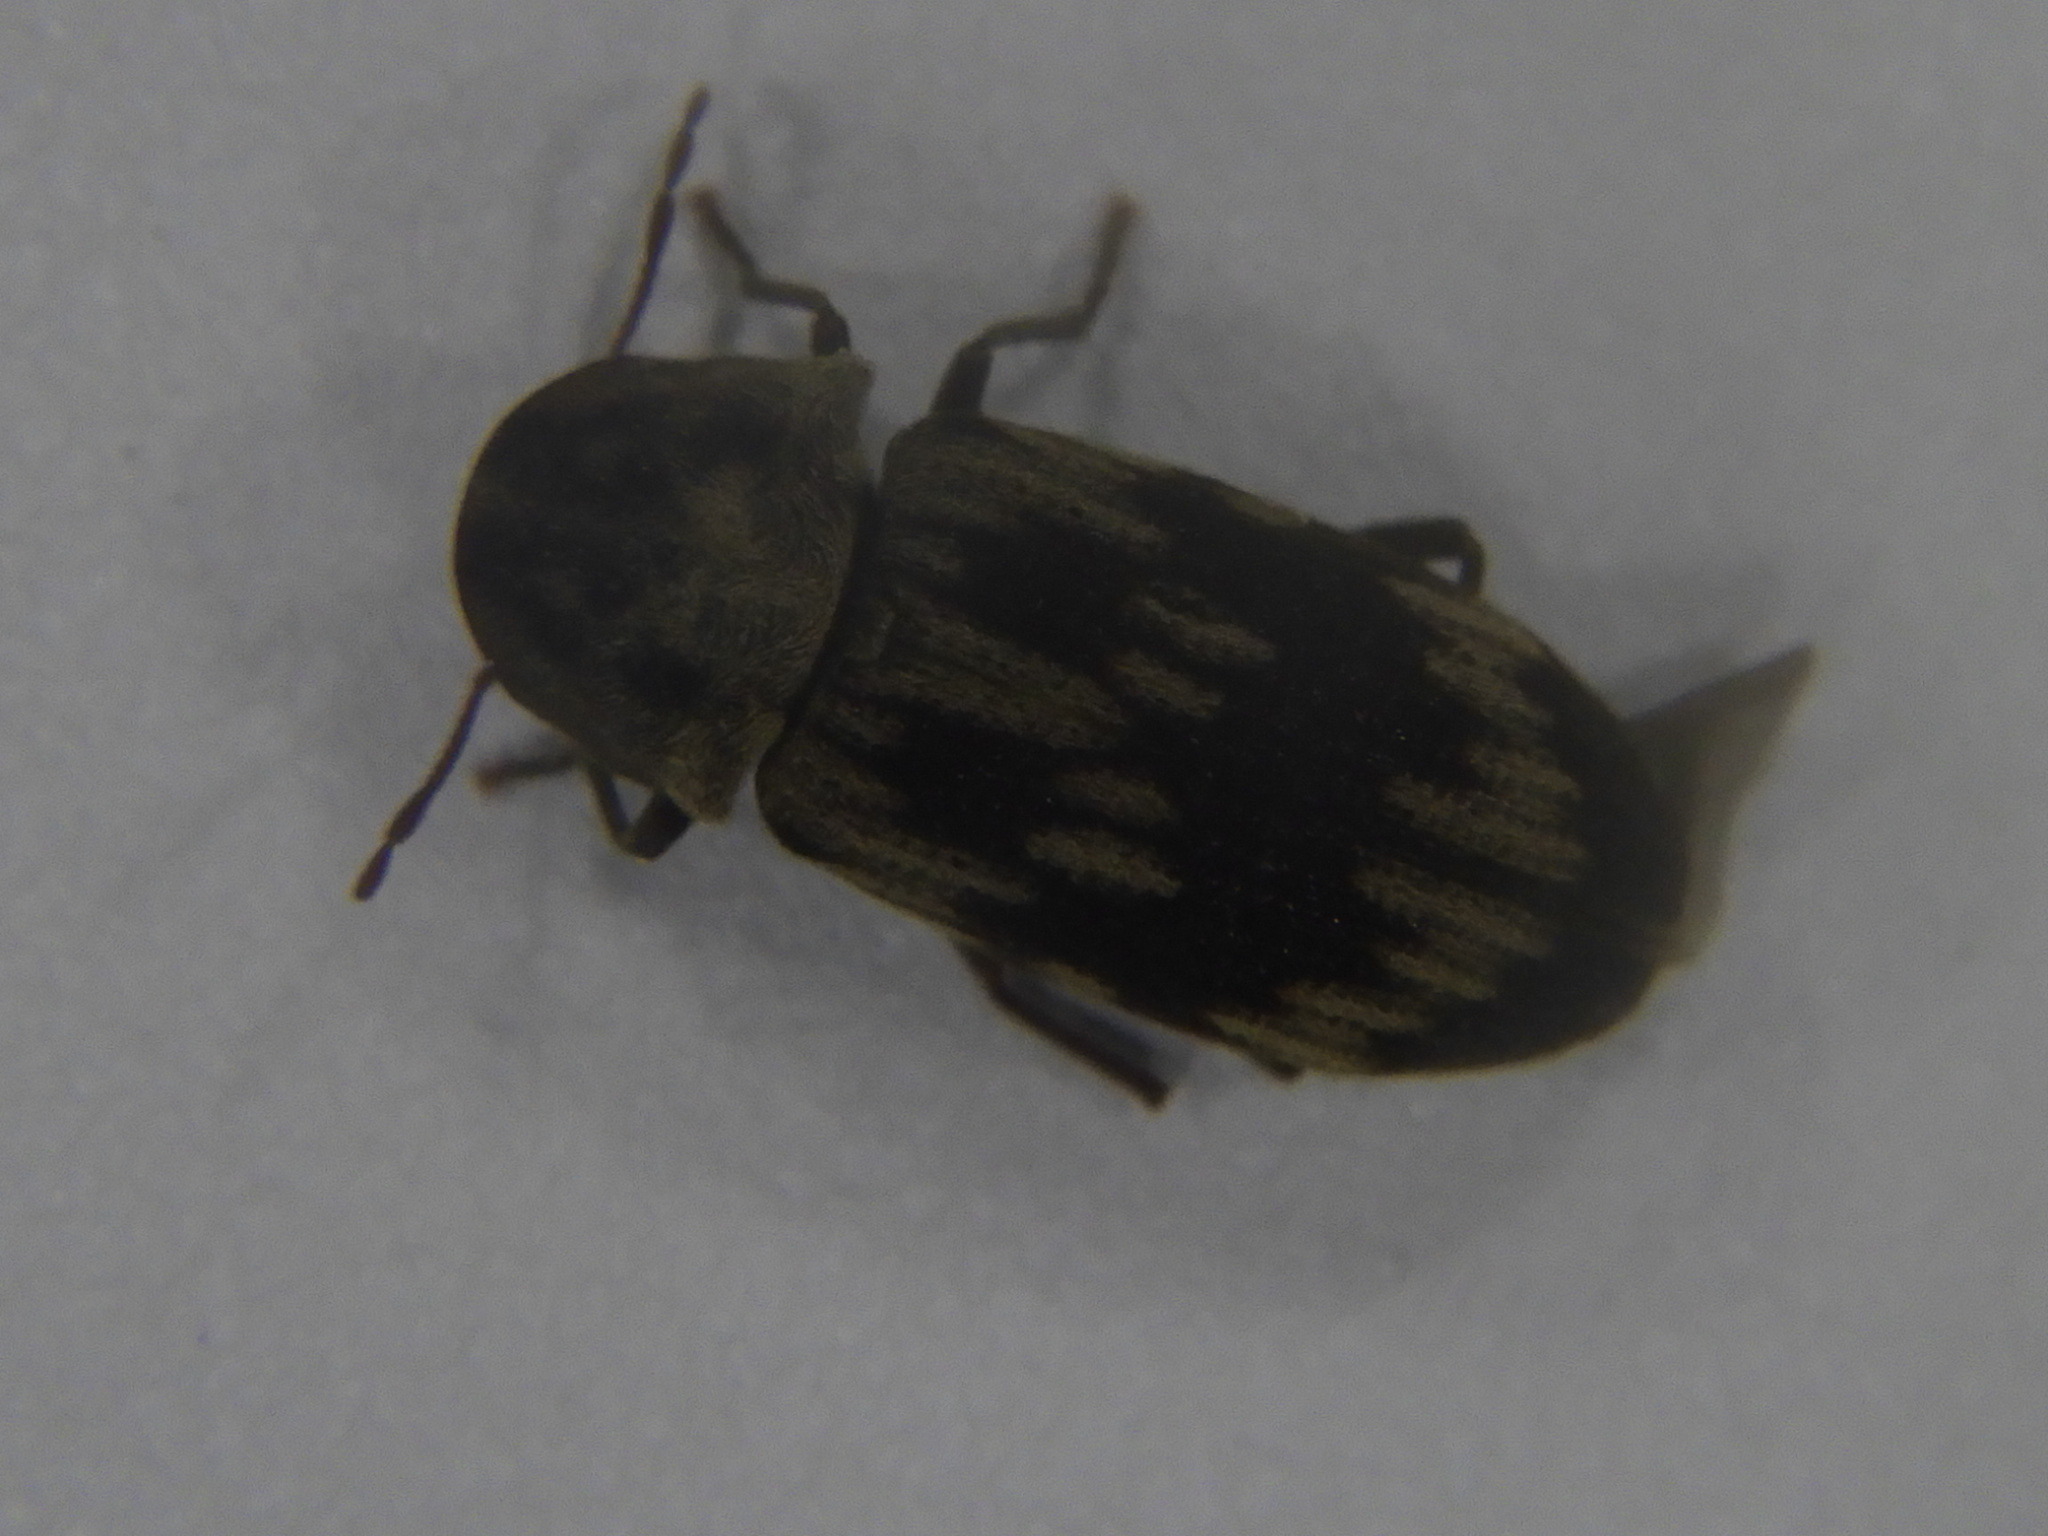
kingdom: Animalia
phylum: Arthropoda
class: Insecta
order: Coleoptera
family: Anobiidae
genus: Hadrobregmus
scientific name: Hadrobregmus notatus
